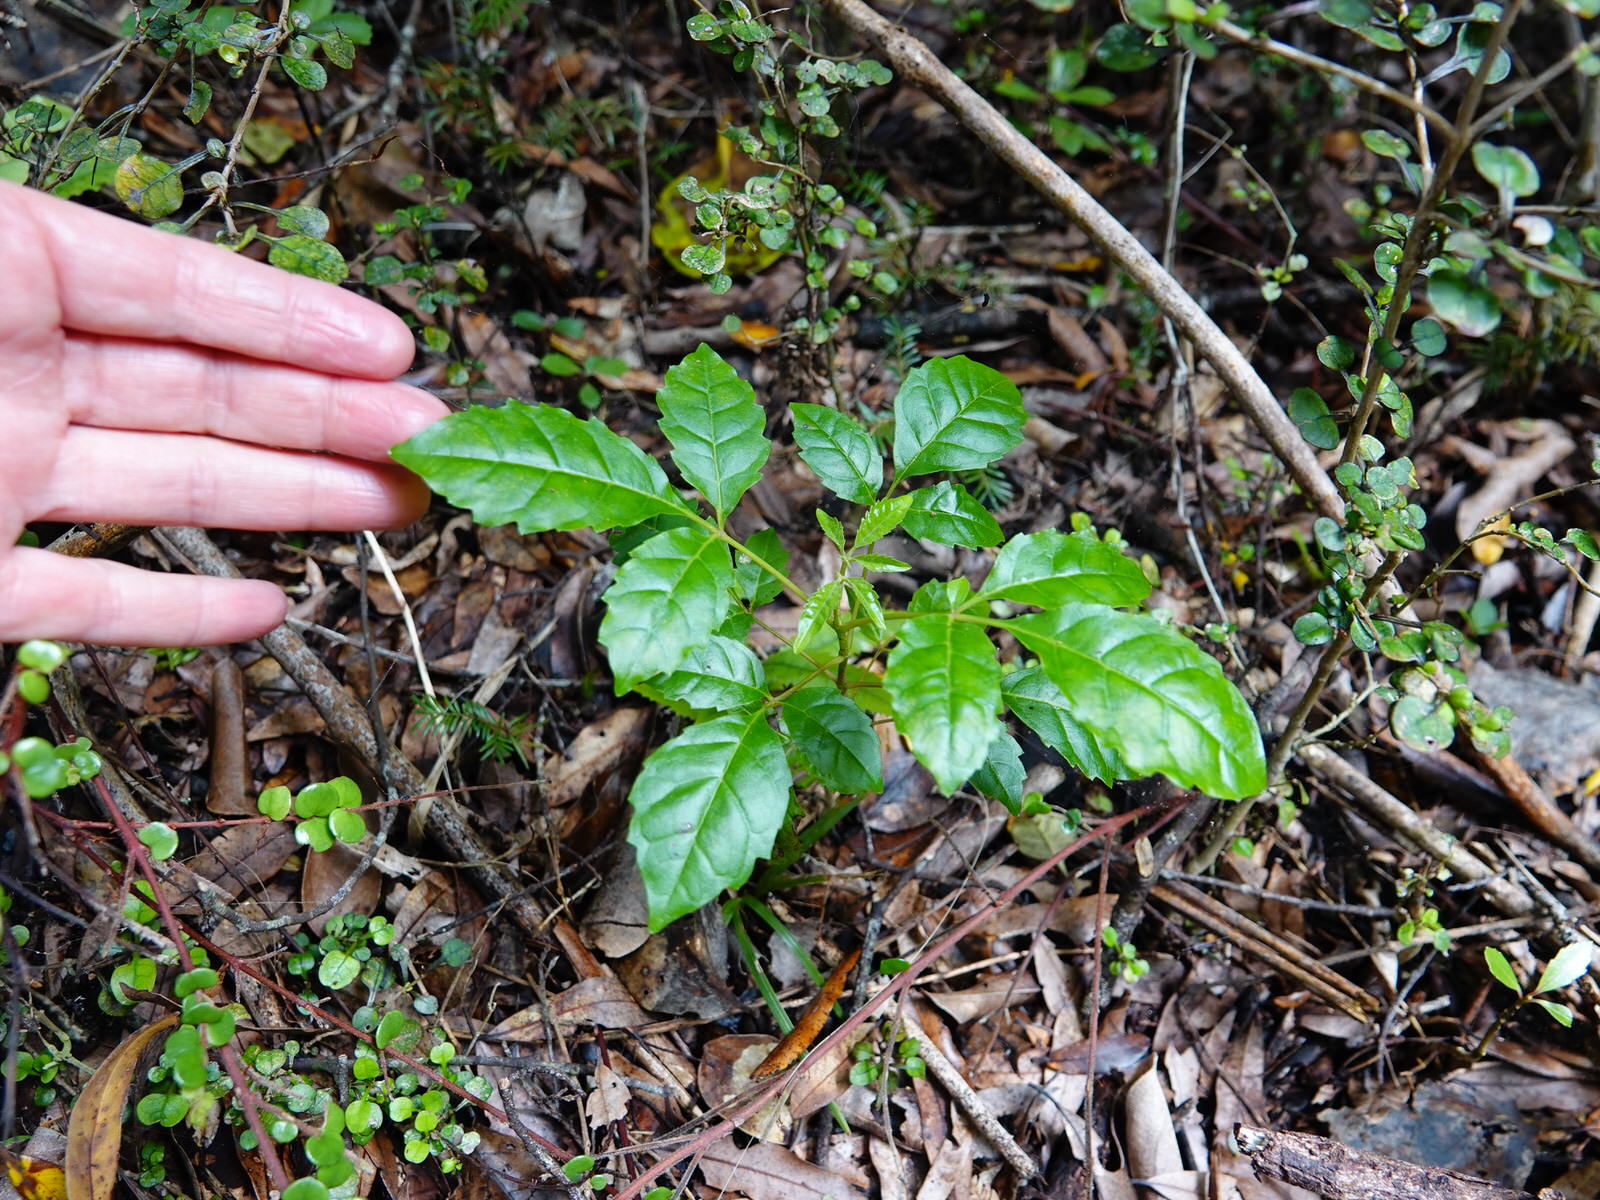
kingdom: Plantae
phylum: Tracheophyta
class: Magnoliopsida
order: Lamiales
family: Lamiaceae
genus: Vitex
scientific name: Vitex lucens
